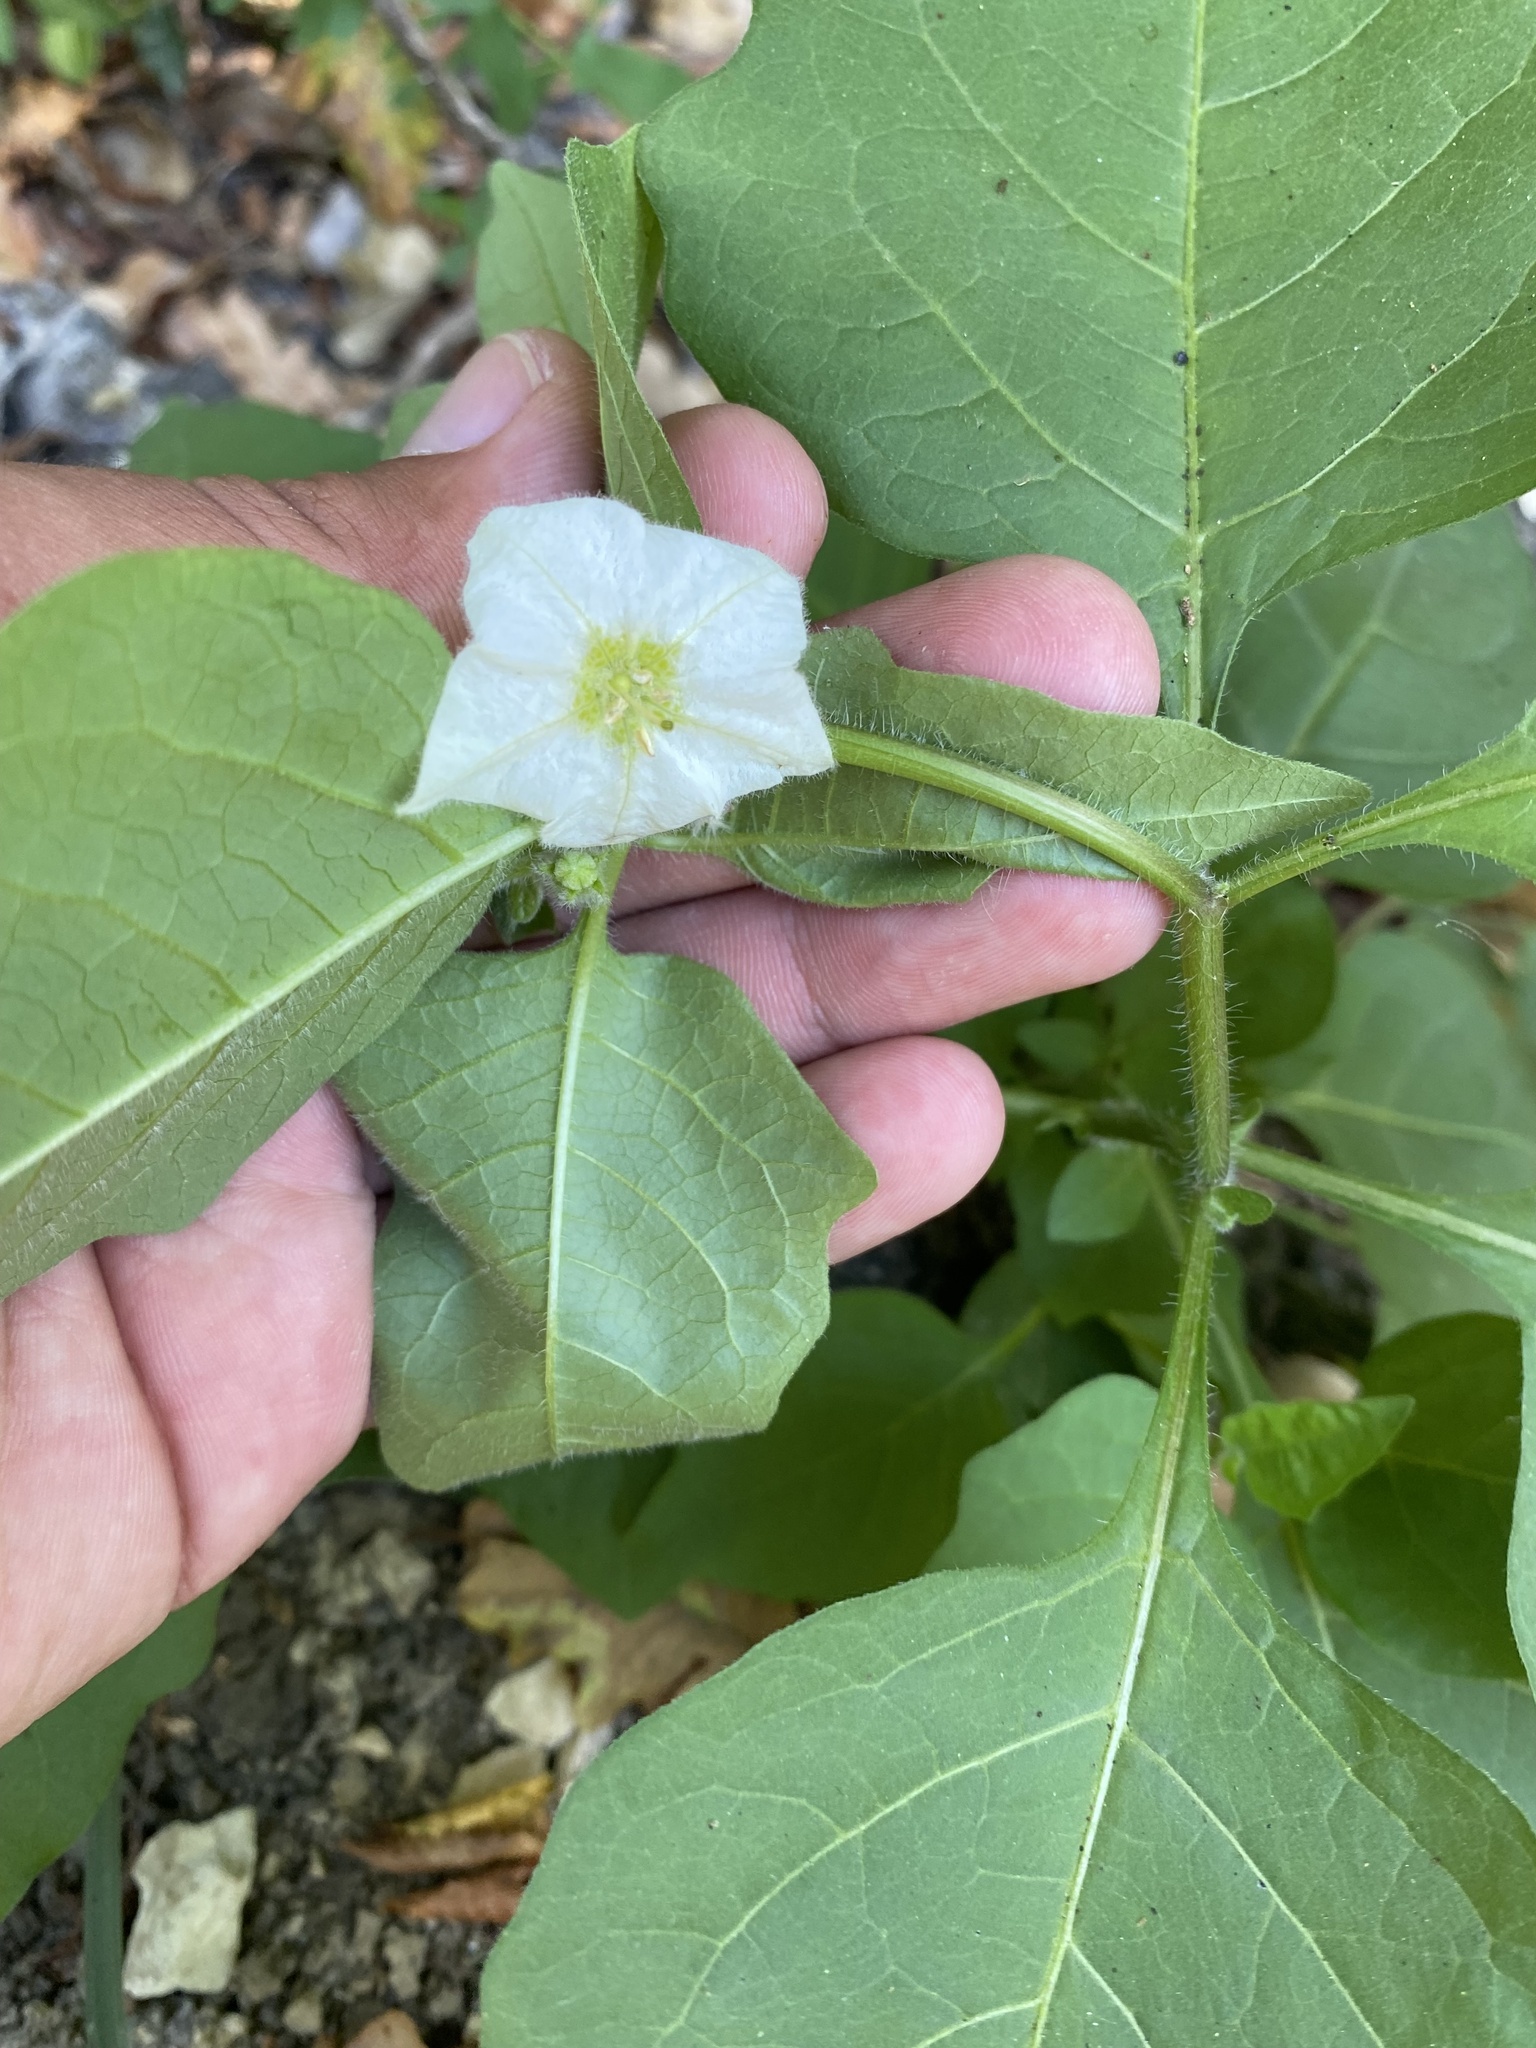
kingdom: Plantae
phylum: Tracheophyta
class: Magnoliopsida
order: Solanales
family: Solanaceae
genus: Alkekengi
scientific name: Alkekengi officinarum
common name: Japanese-lantern
